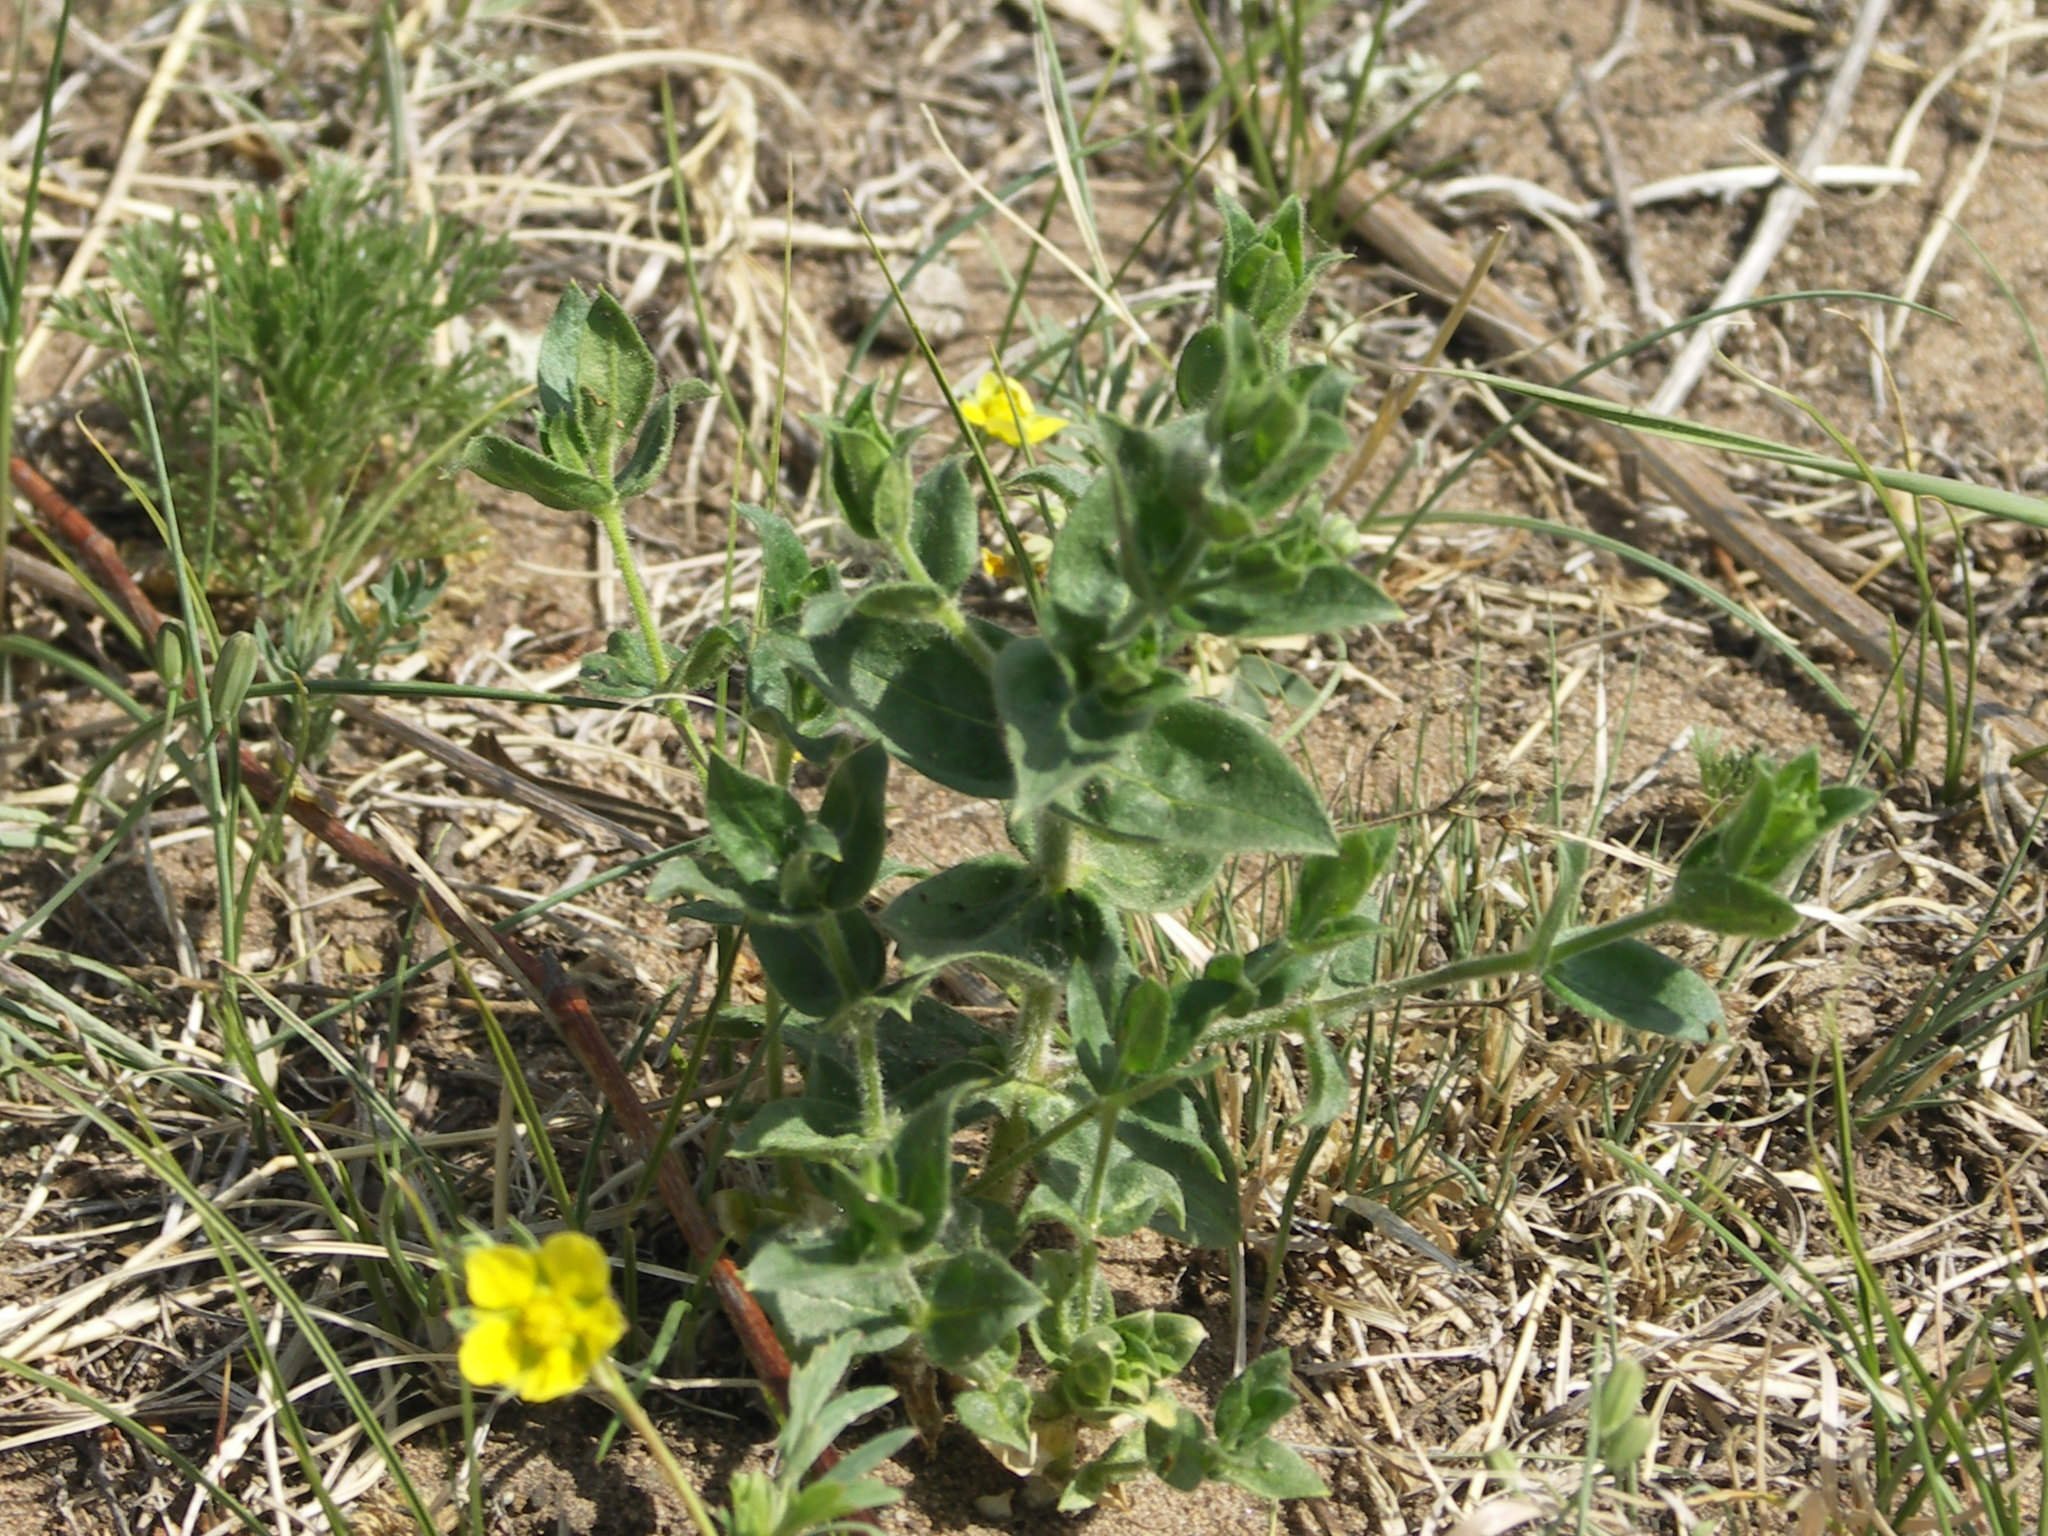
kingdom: Plantae
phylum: Tracheophyta
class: Magnoliopsida
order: Caryophyllales
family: Caryophyllaceae
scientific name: Caryophyllaceae
